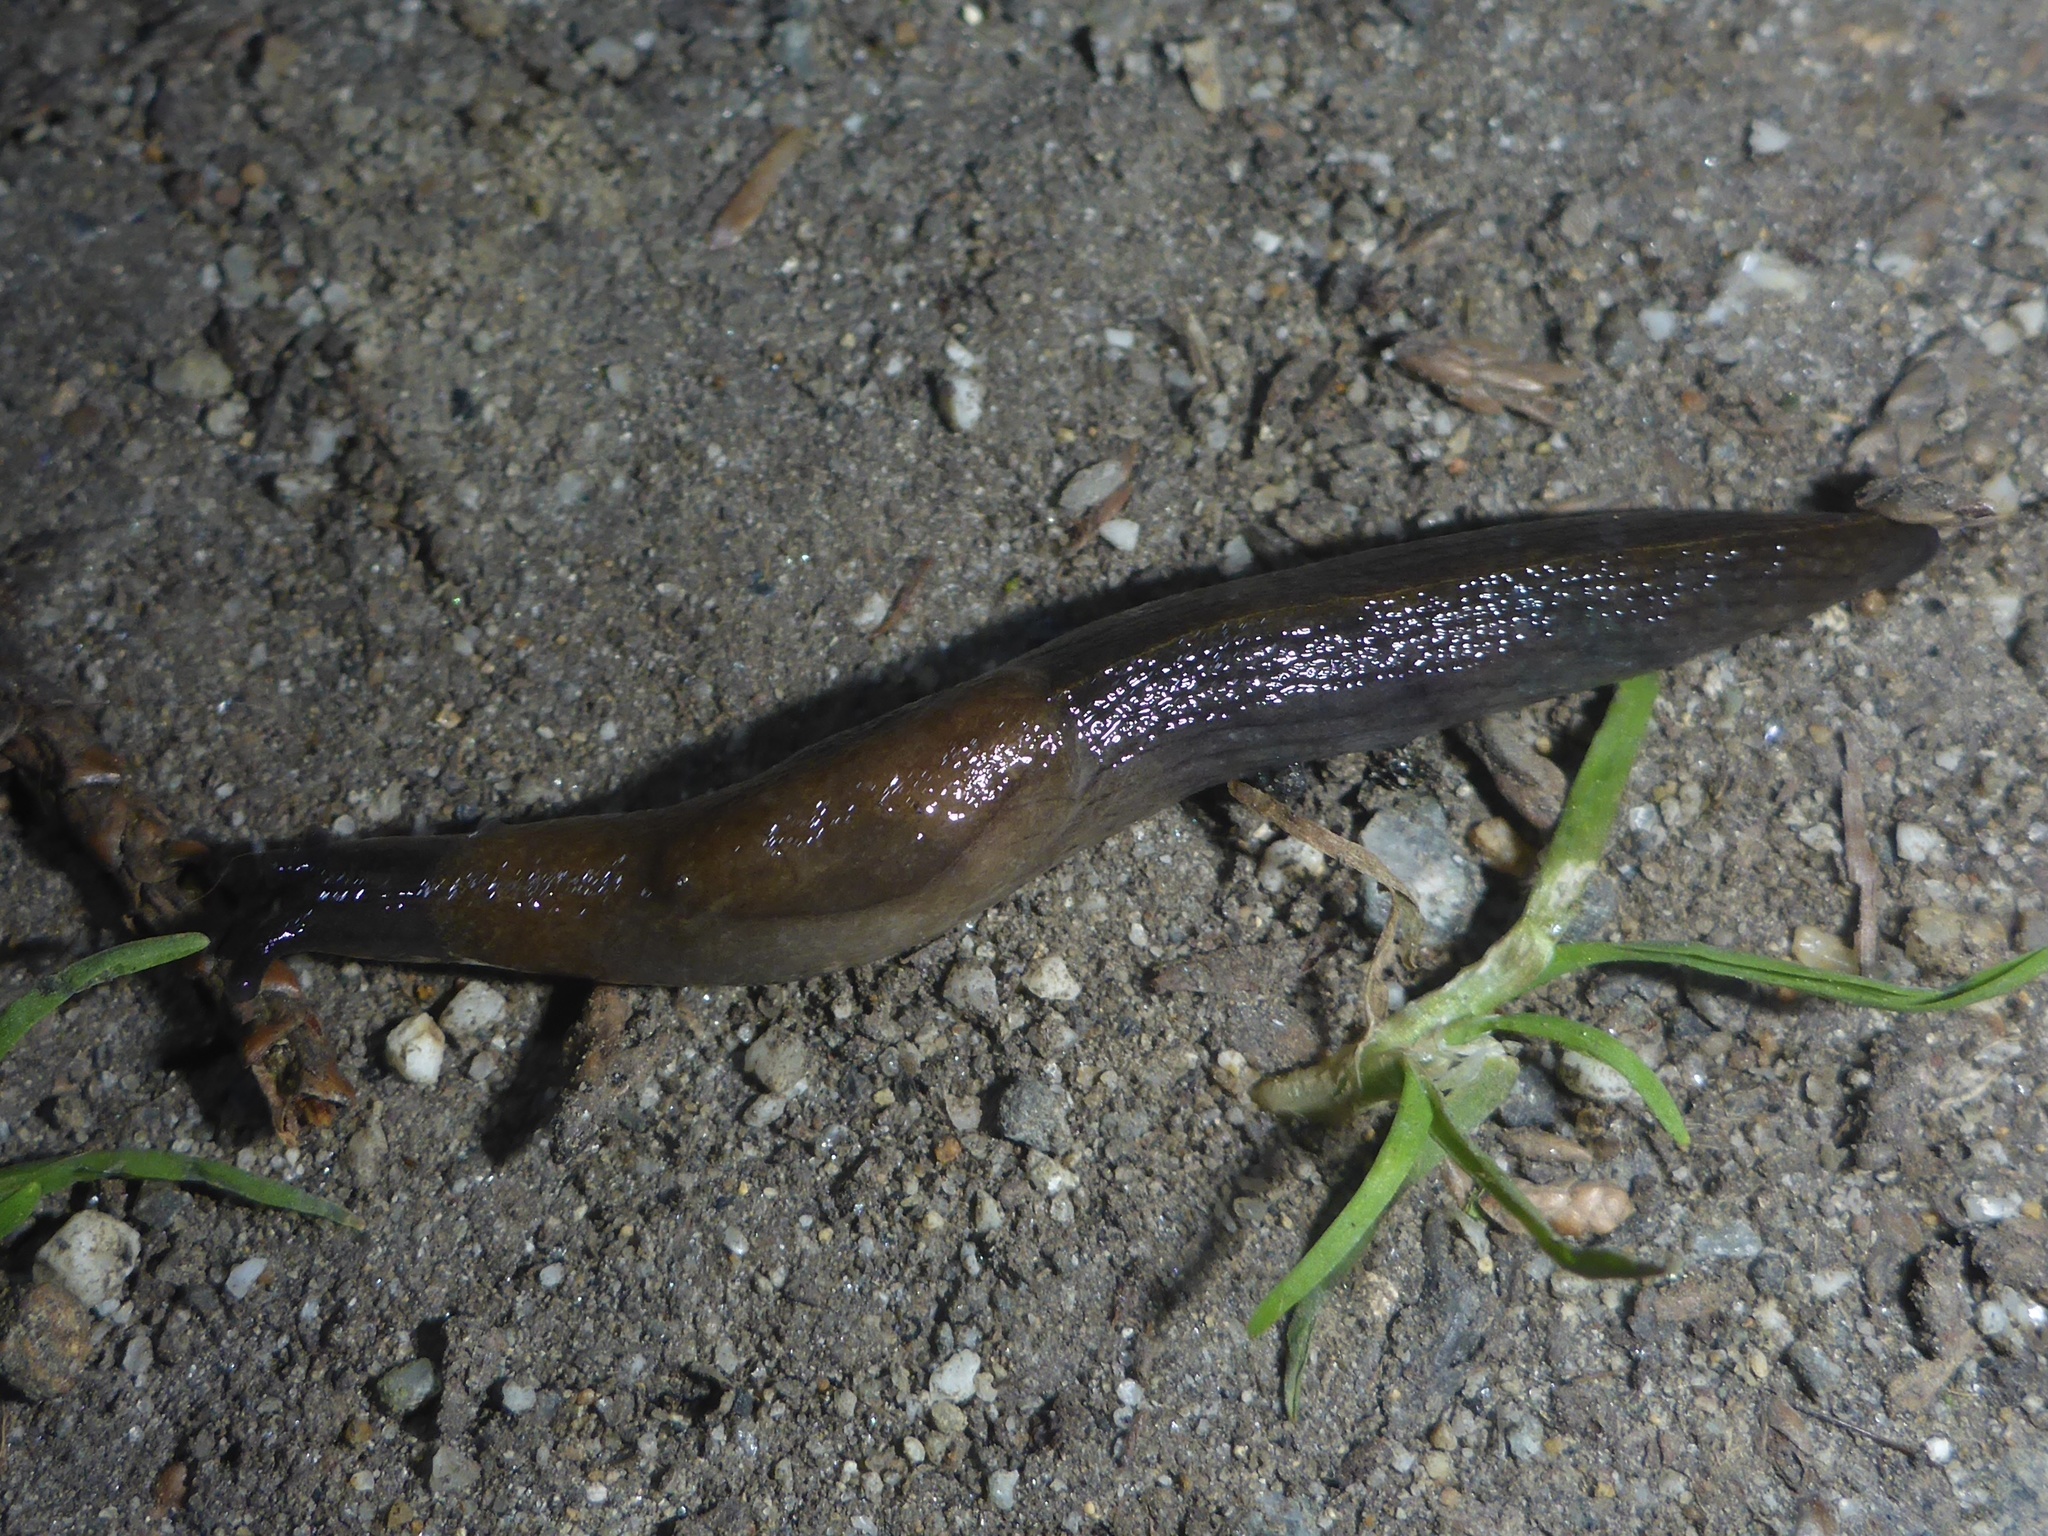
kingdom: Animalia
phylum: Mollusca
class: Gastropoda
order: Stylommatophora
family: Milacidae
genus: Milax
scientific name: Milax gagates
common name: Greenhouse slug
